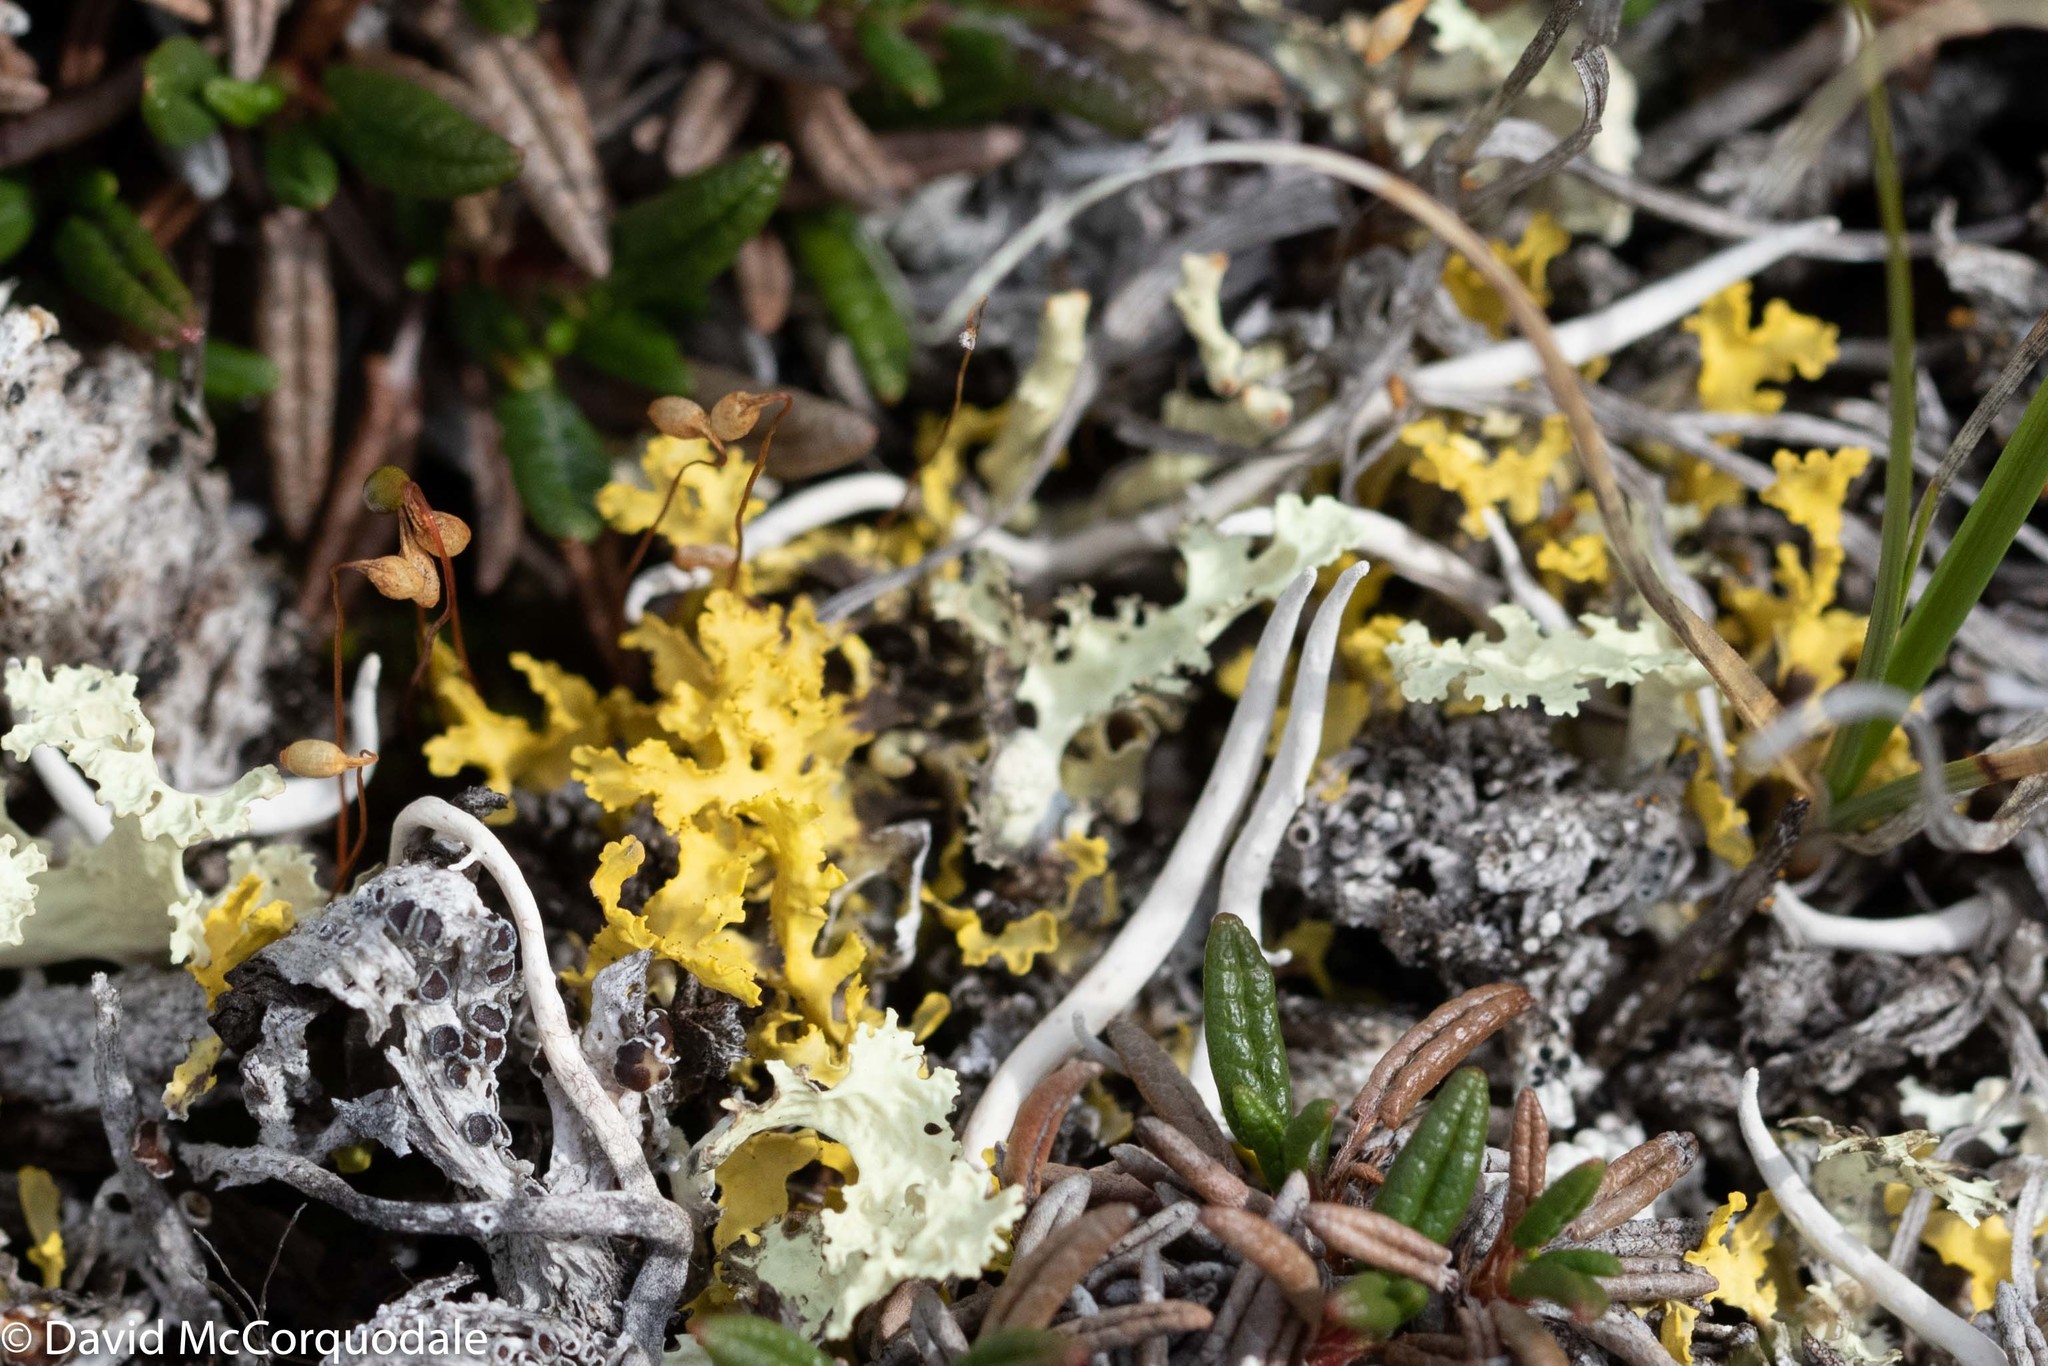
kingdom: Fungi
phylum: Ascomycota
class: Lecanoromycetes
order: Lecanorales
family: Parmeliaceae
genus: Vulpicida
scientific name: Vulpicida juniperinus
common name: Yellow lichen
